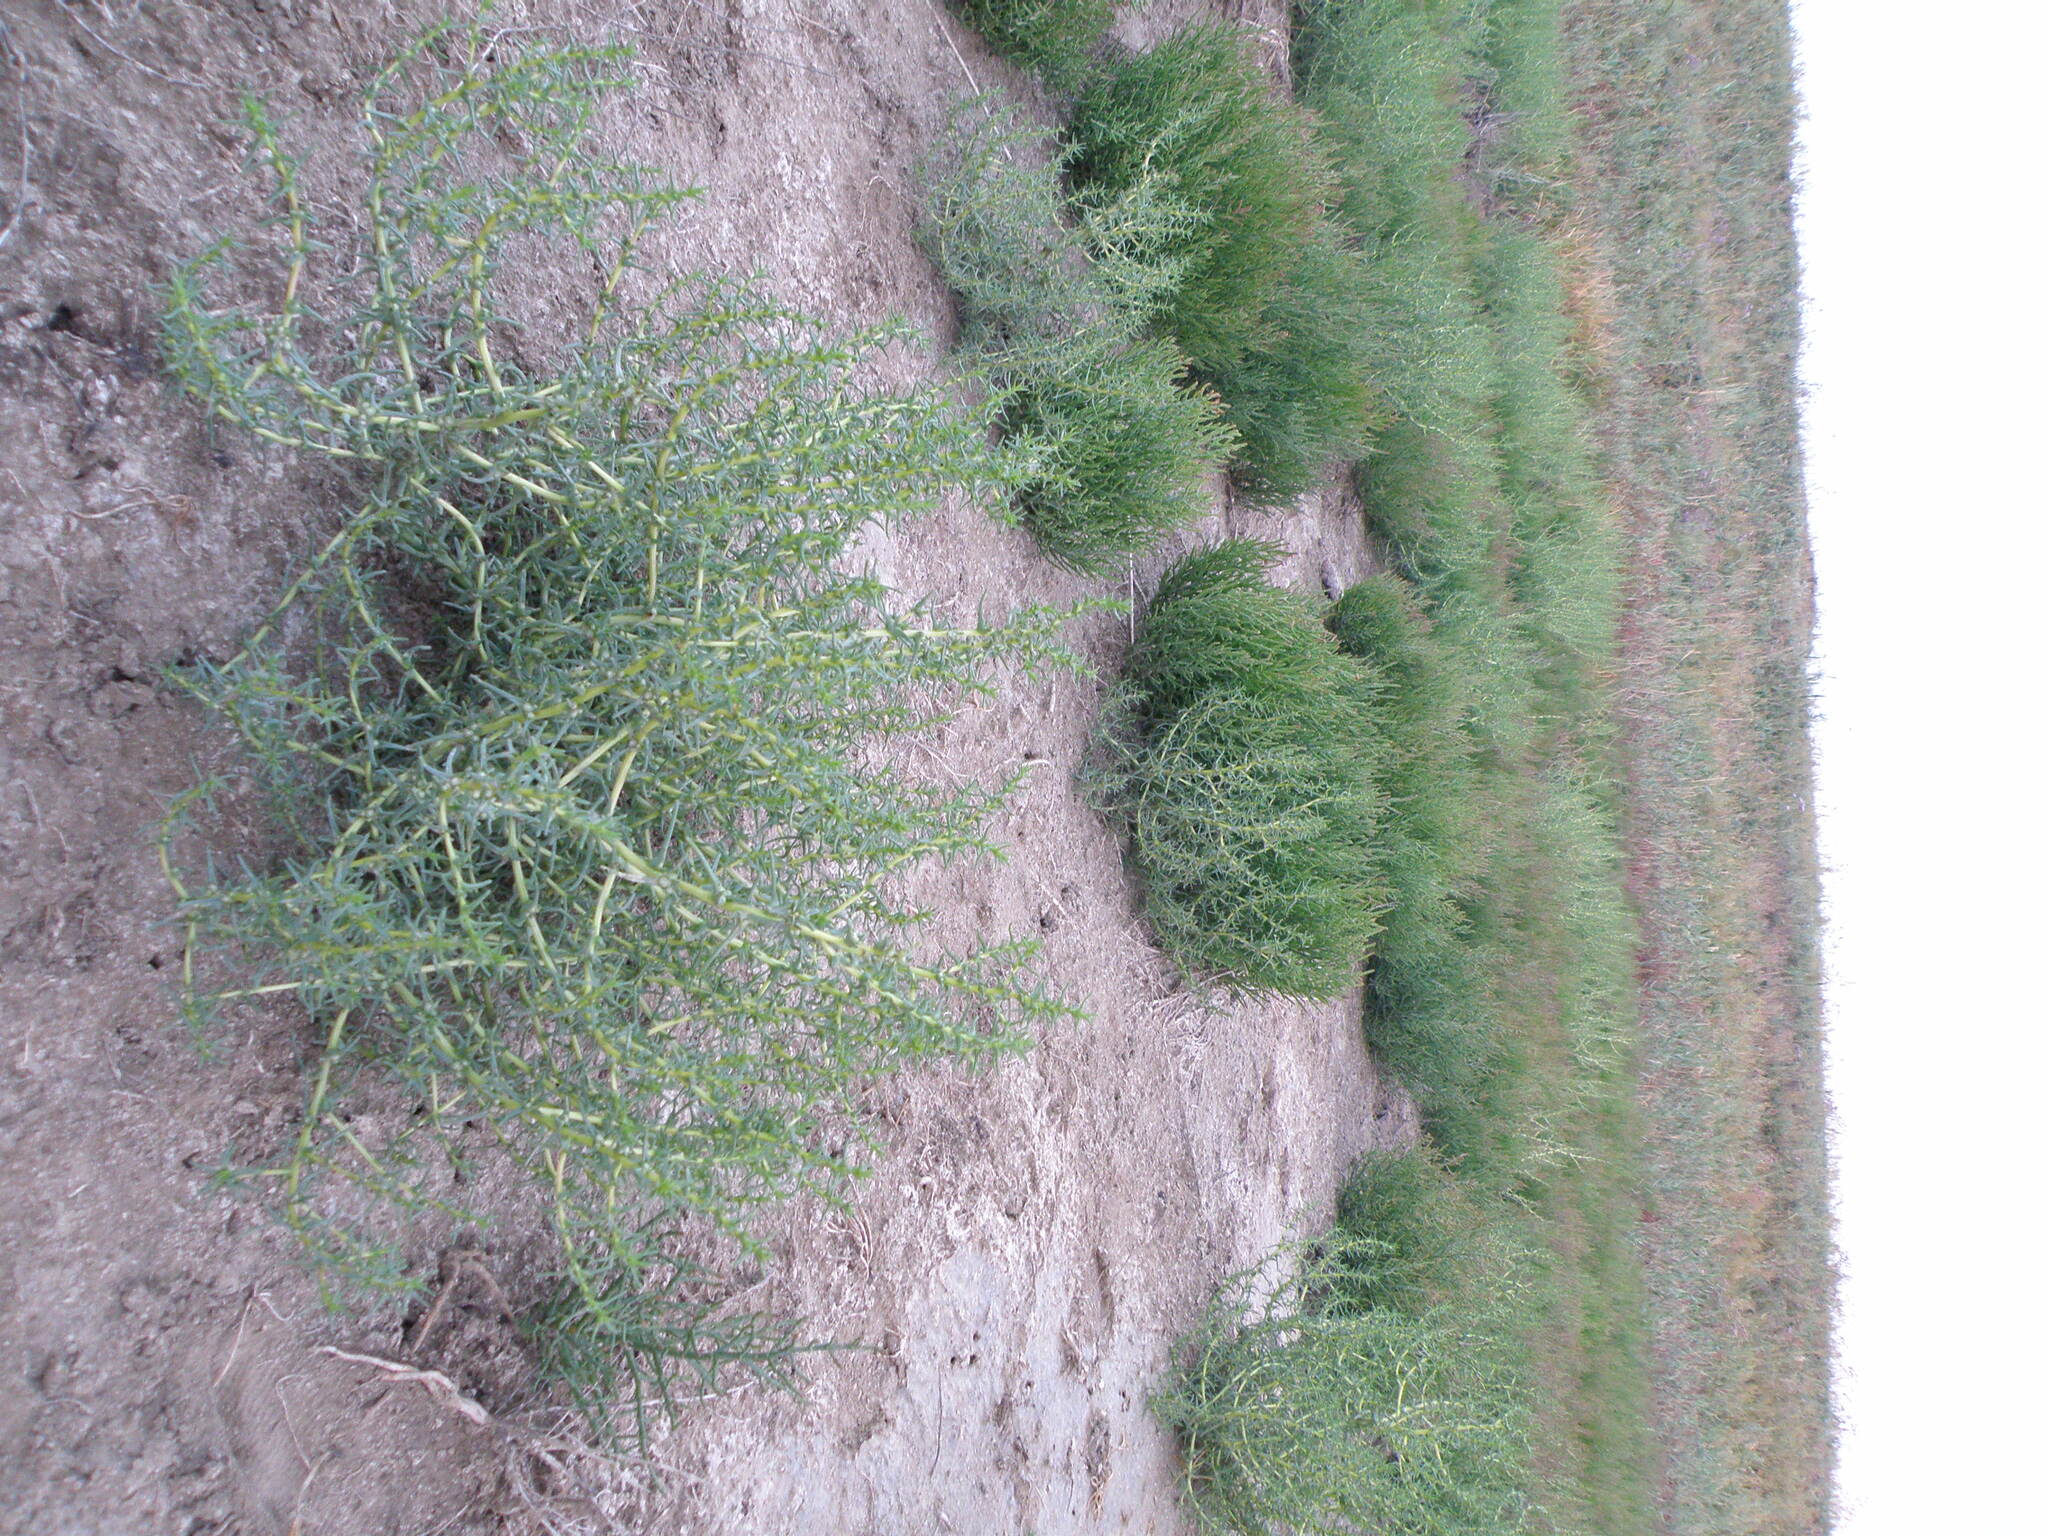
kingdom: Plantae
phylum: Tracheophyta
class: Magnoliopsida
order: Caryophyllales
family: Amaranthaceae
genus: Salsola
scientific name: Salsola tragus
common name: Prickly russian thistle
